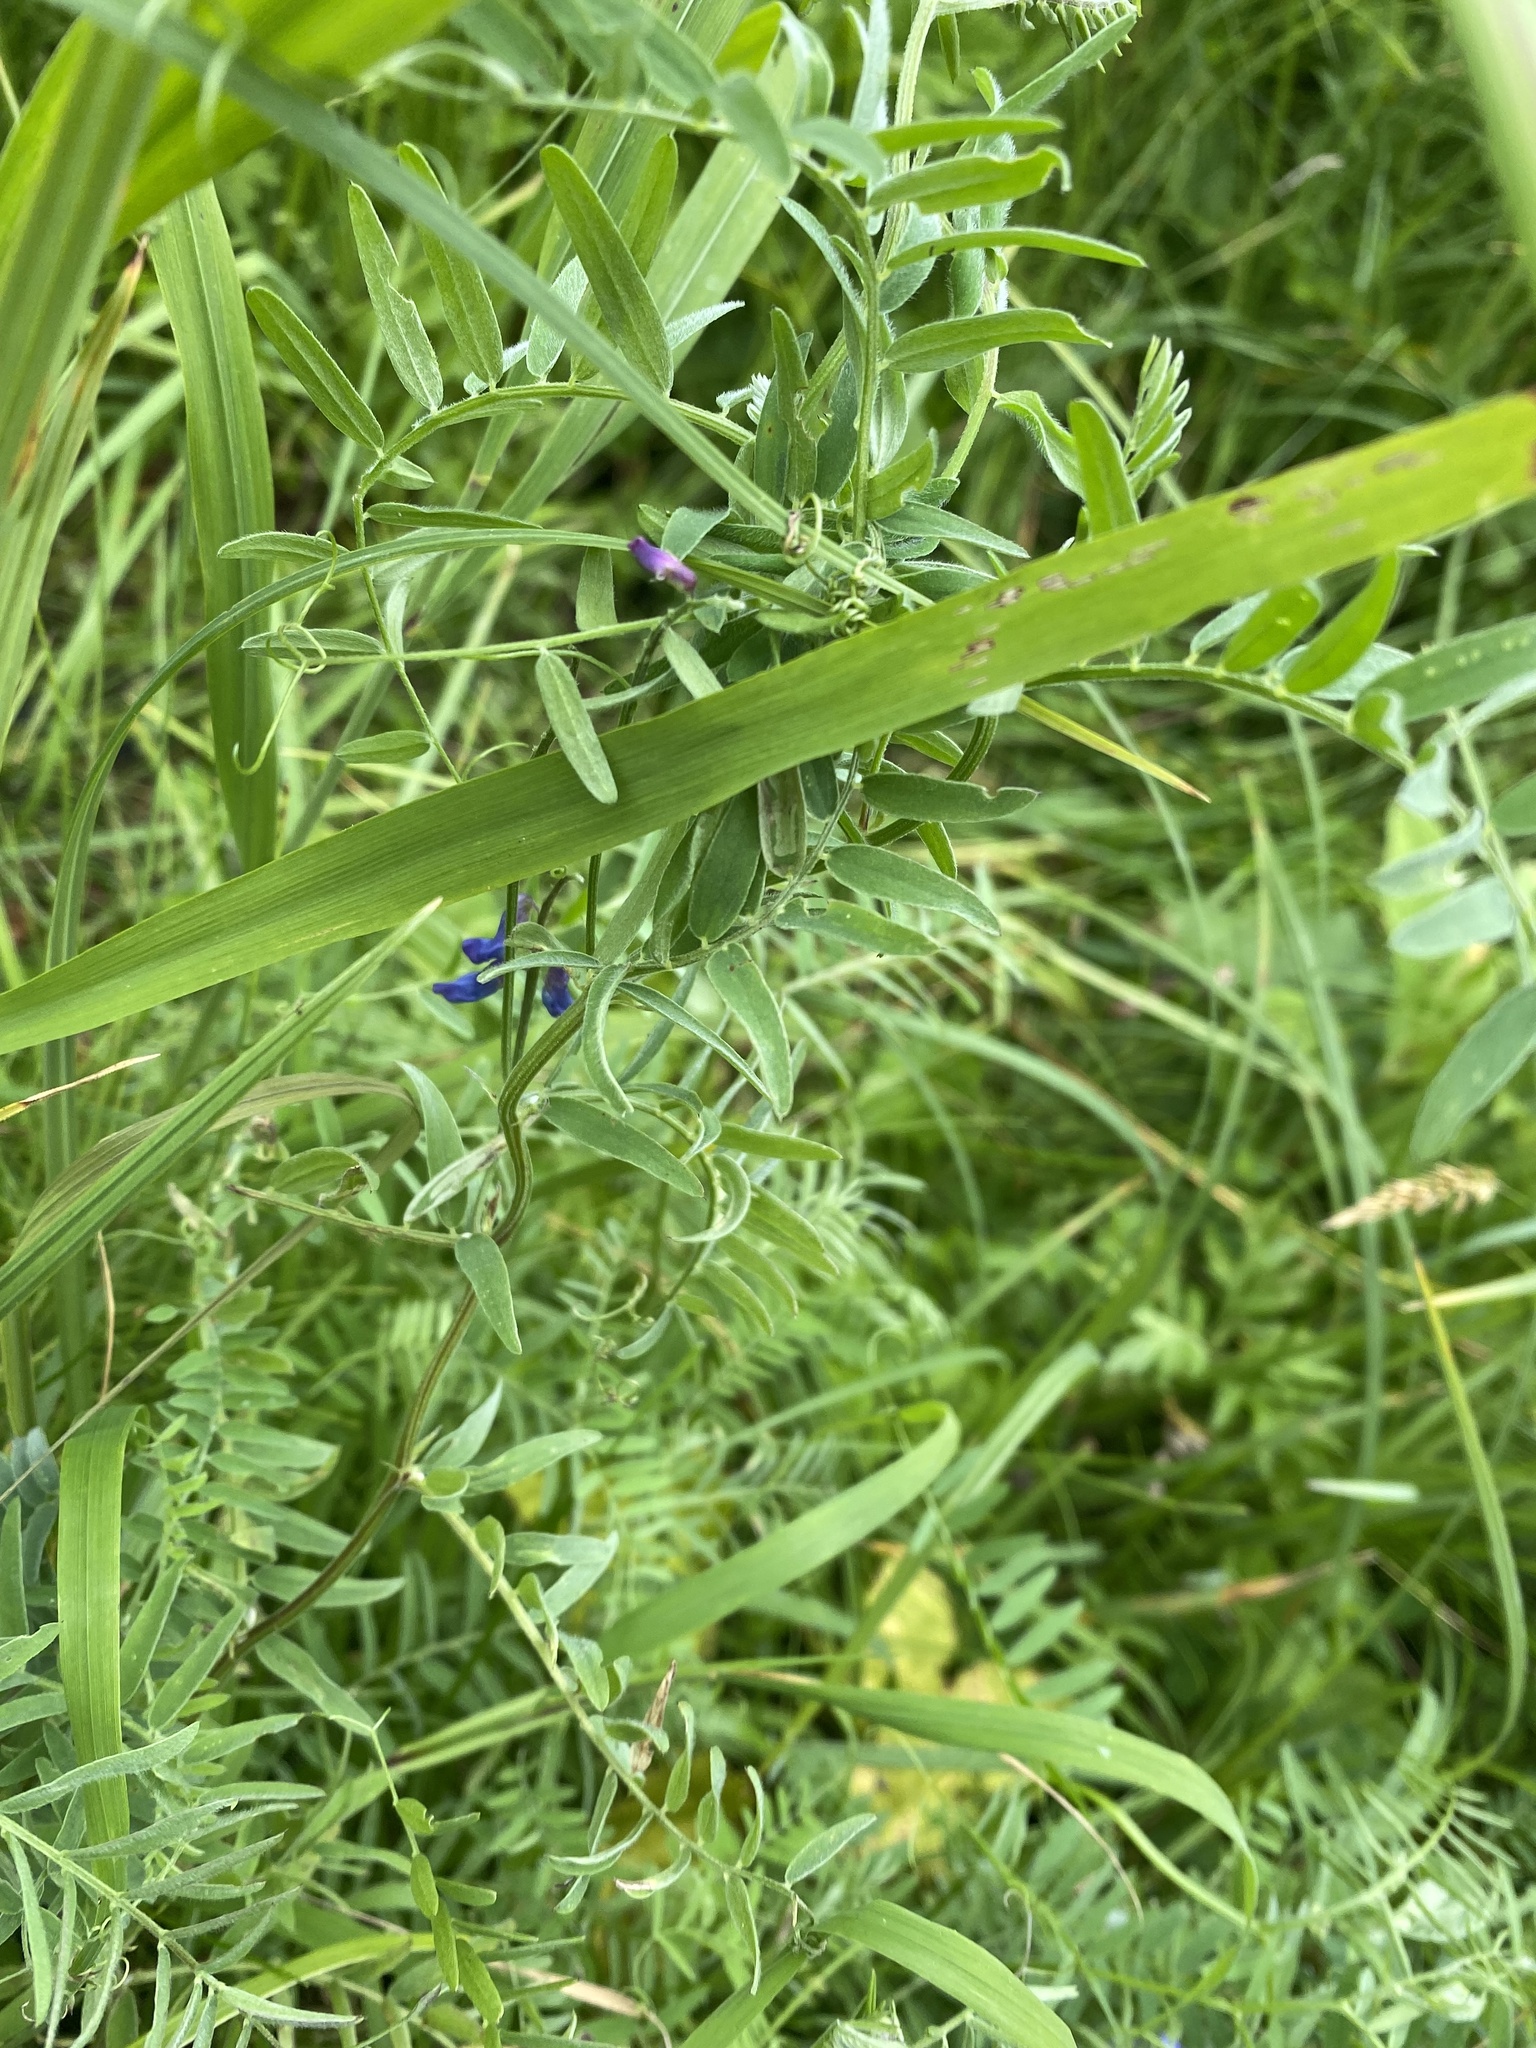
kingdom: Plantae
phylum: Tracheophyta
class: Magnoliopsida
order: Fabales
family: Fabaceae
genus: Vicia
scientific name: Vicia cracca
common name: Bird vetch
